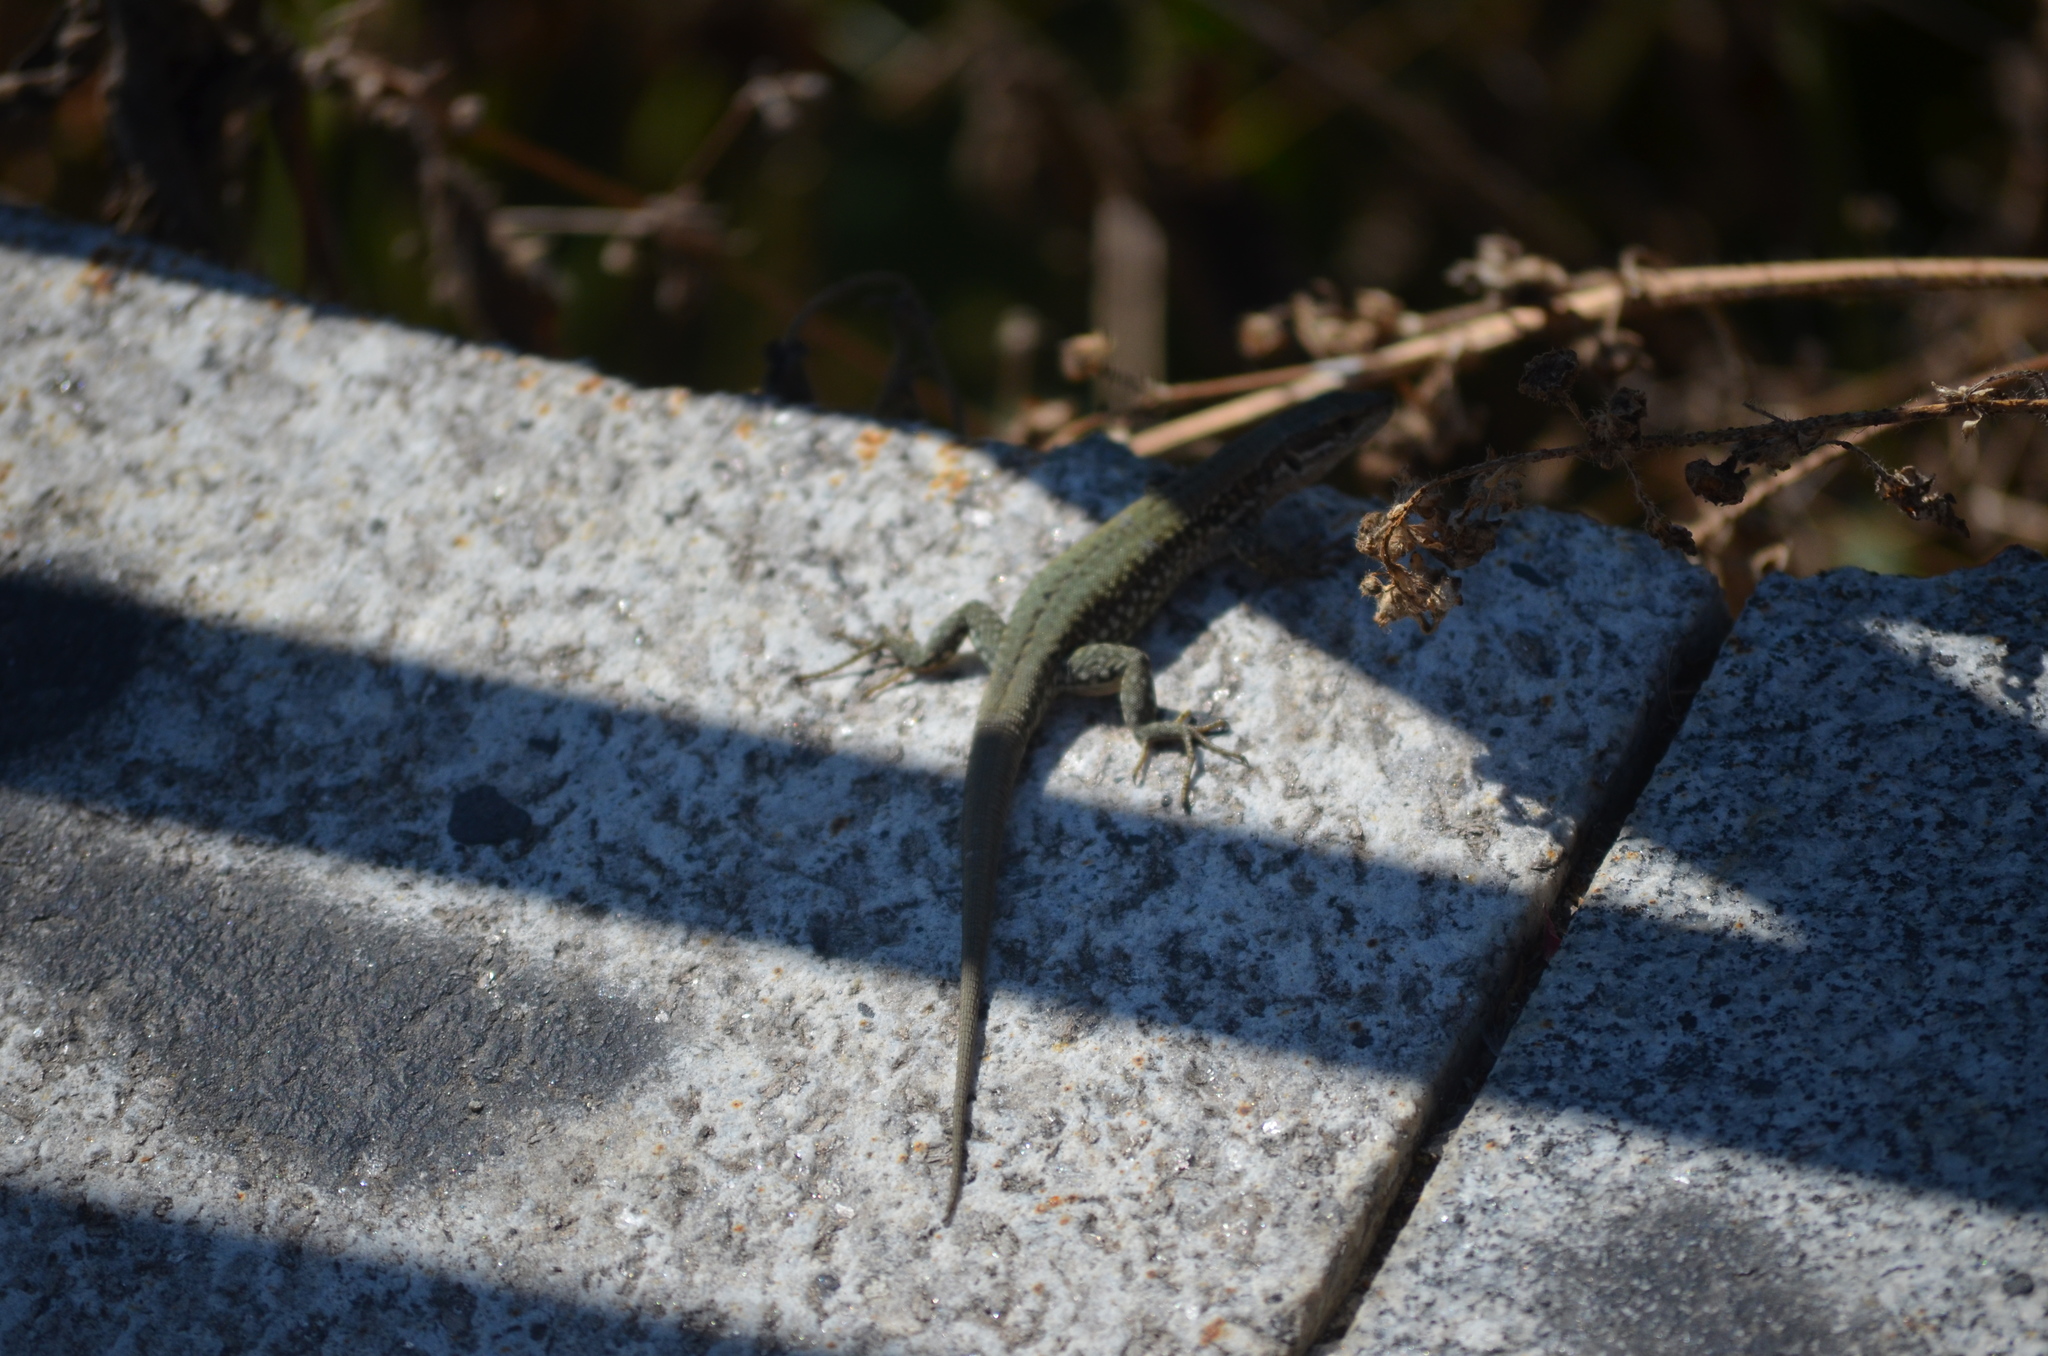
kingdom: Animalia
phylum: Chordata
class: Squamata
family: Lacertidae
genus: Podarcis
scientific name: Podarcis muralis
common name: Common wall lizard
